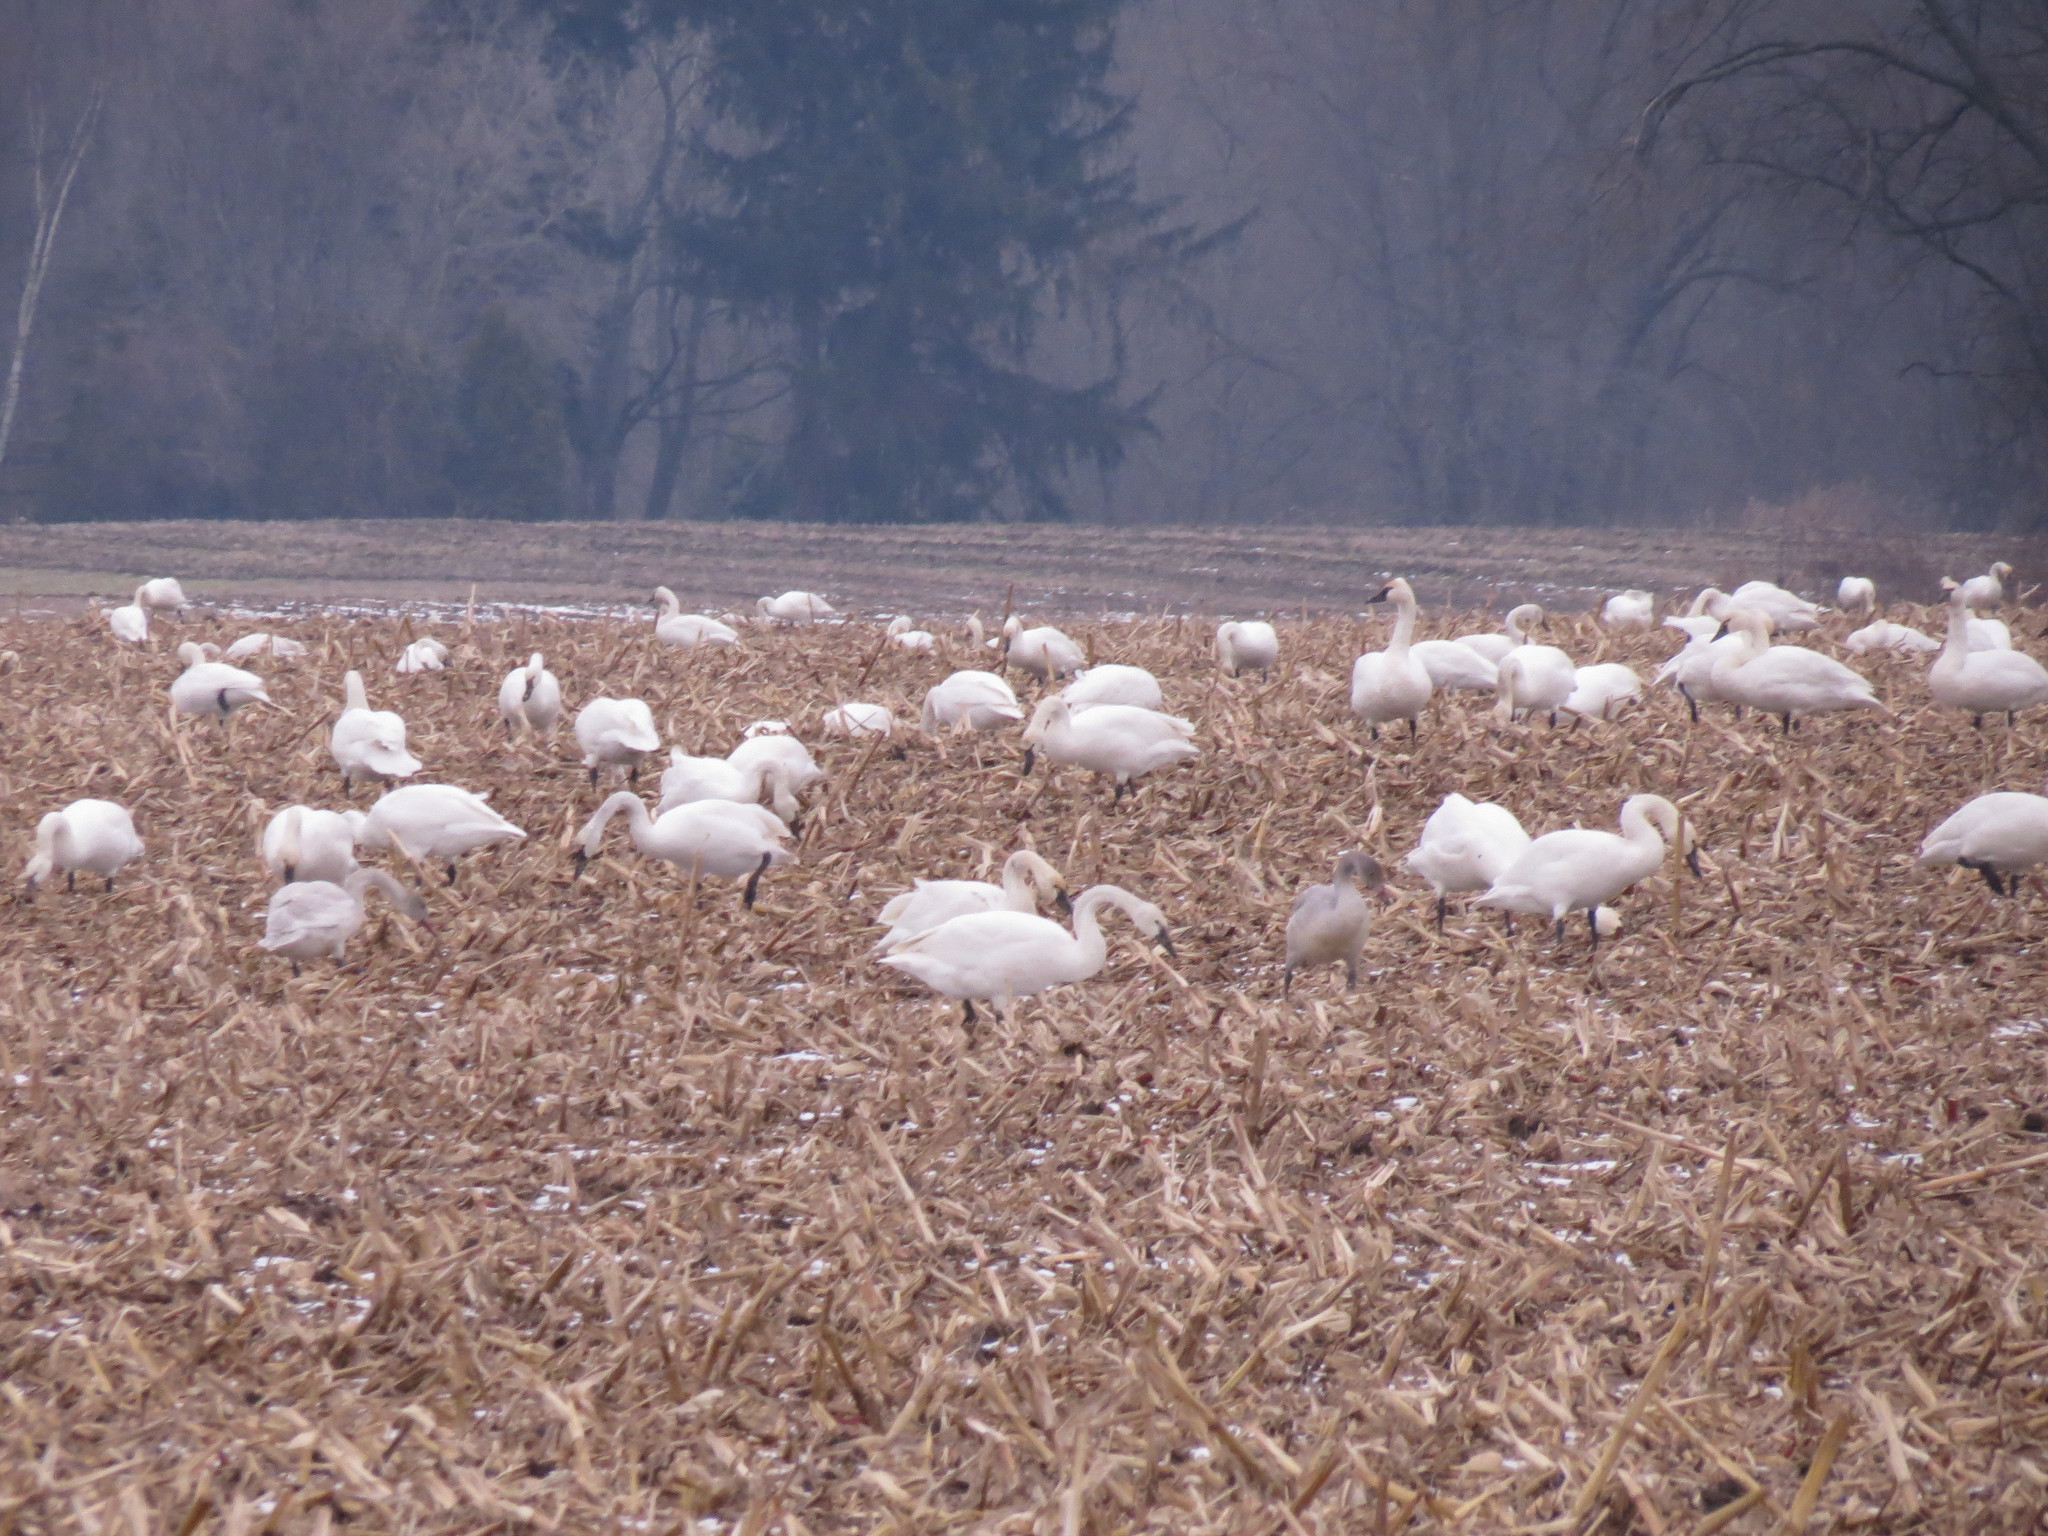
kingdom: Animalia
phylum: Chordata
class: Aves
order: Anseriformes
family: Anatidae
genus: Cygnus
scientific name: Cygnus columbianus
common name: Tundra swan
